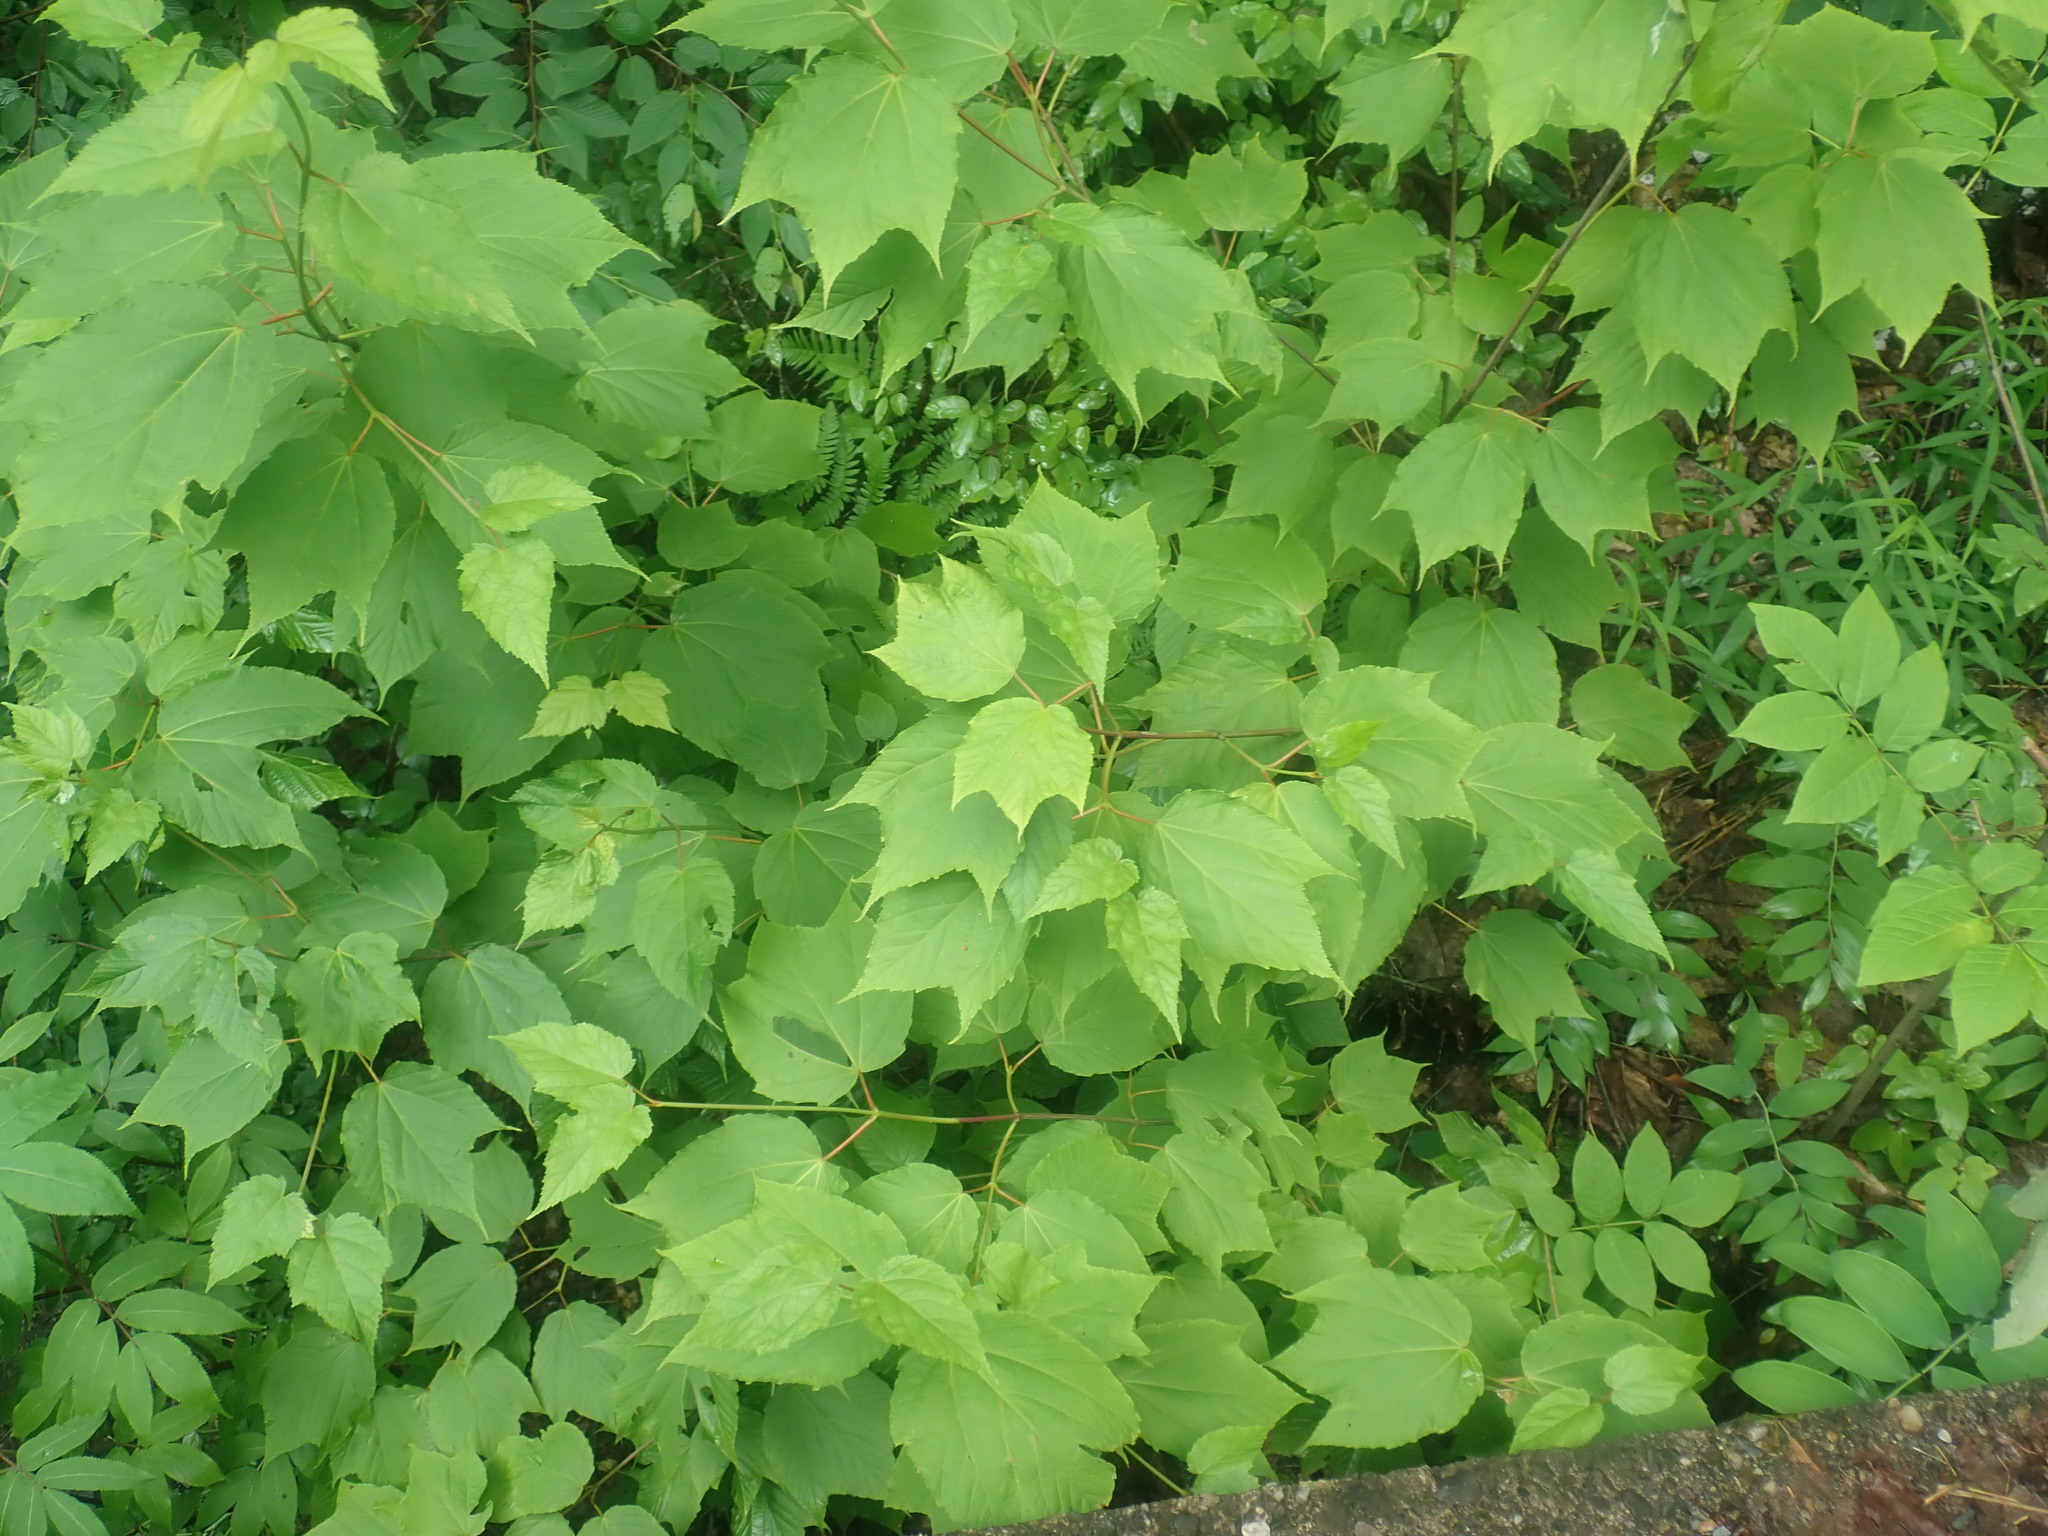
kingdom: Plantae
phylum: Tracheophyta
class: Magnoliopsida
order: Sapindales
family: Sapindaceae
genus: Acer
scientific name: Acer pensylvanicum
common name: Moosewood
